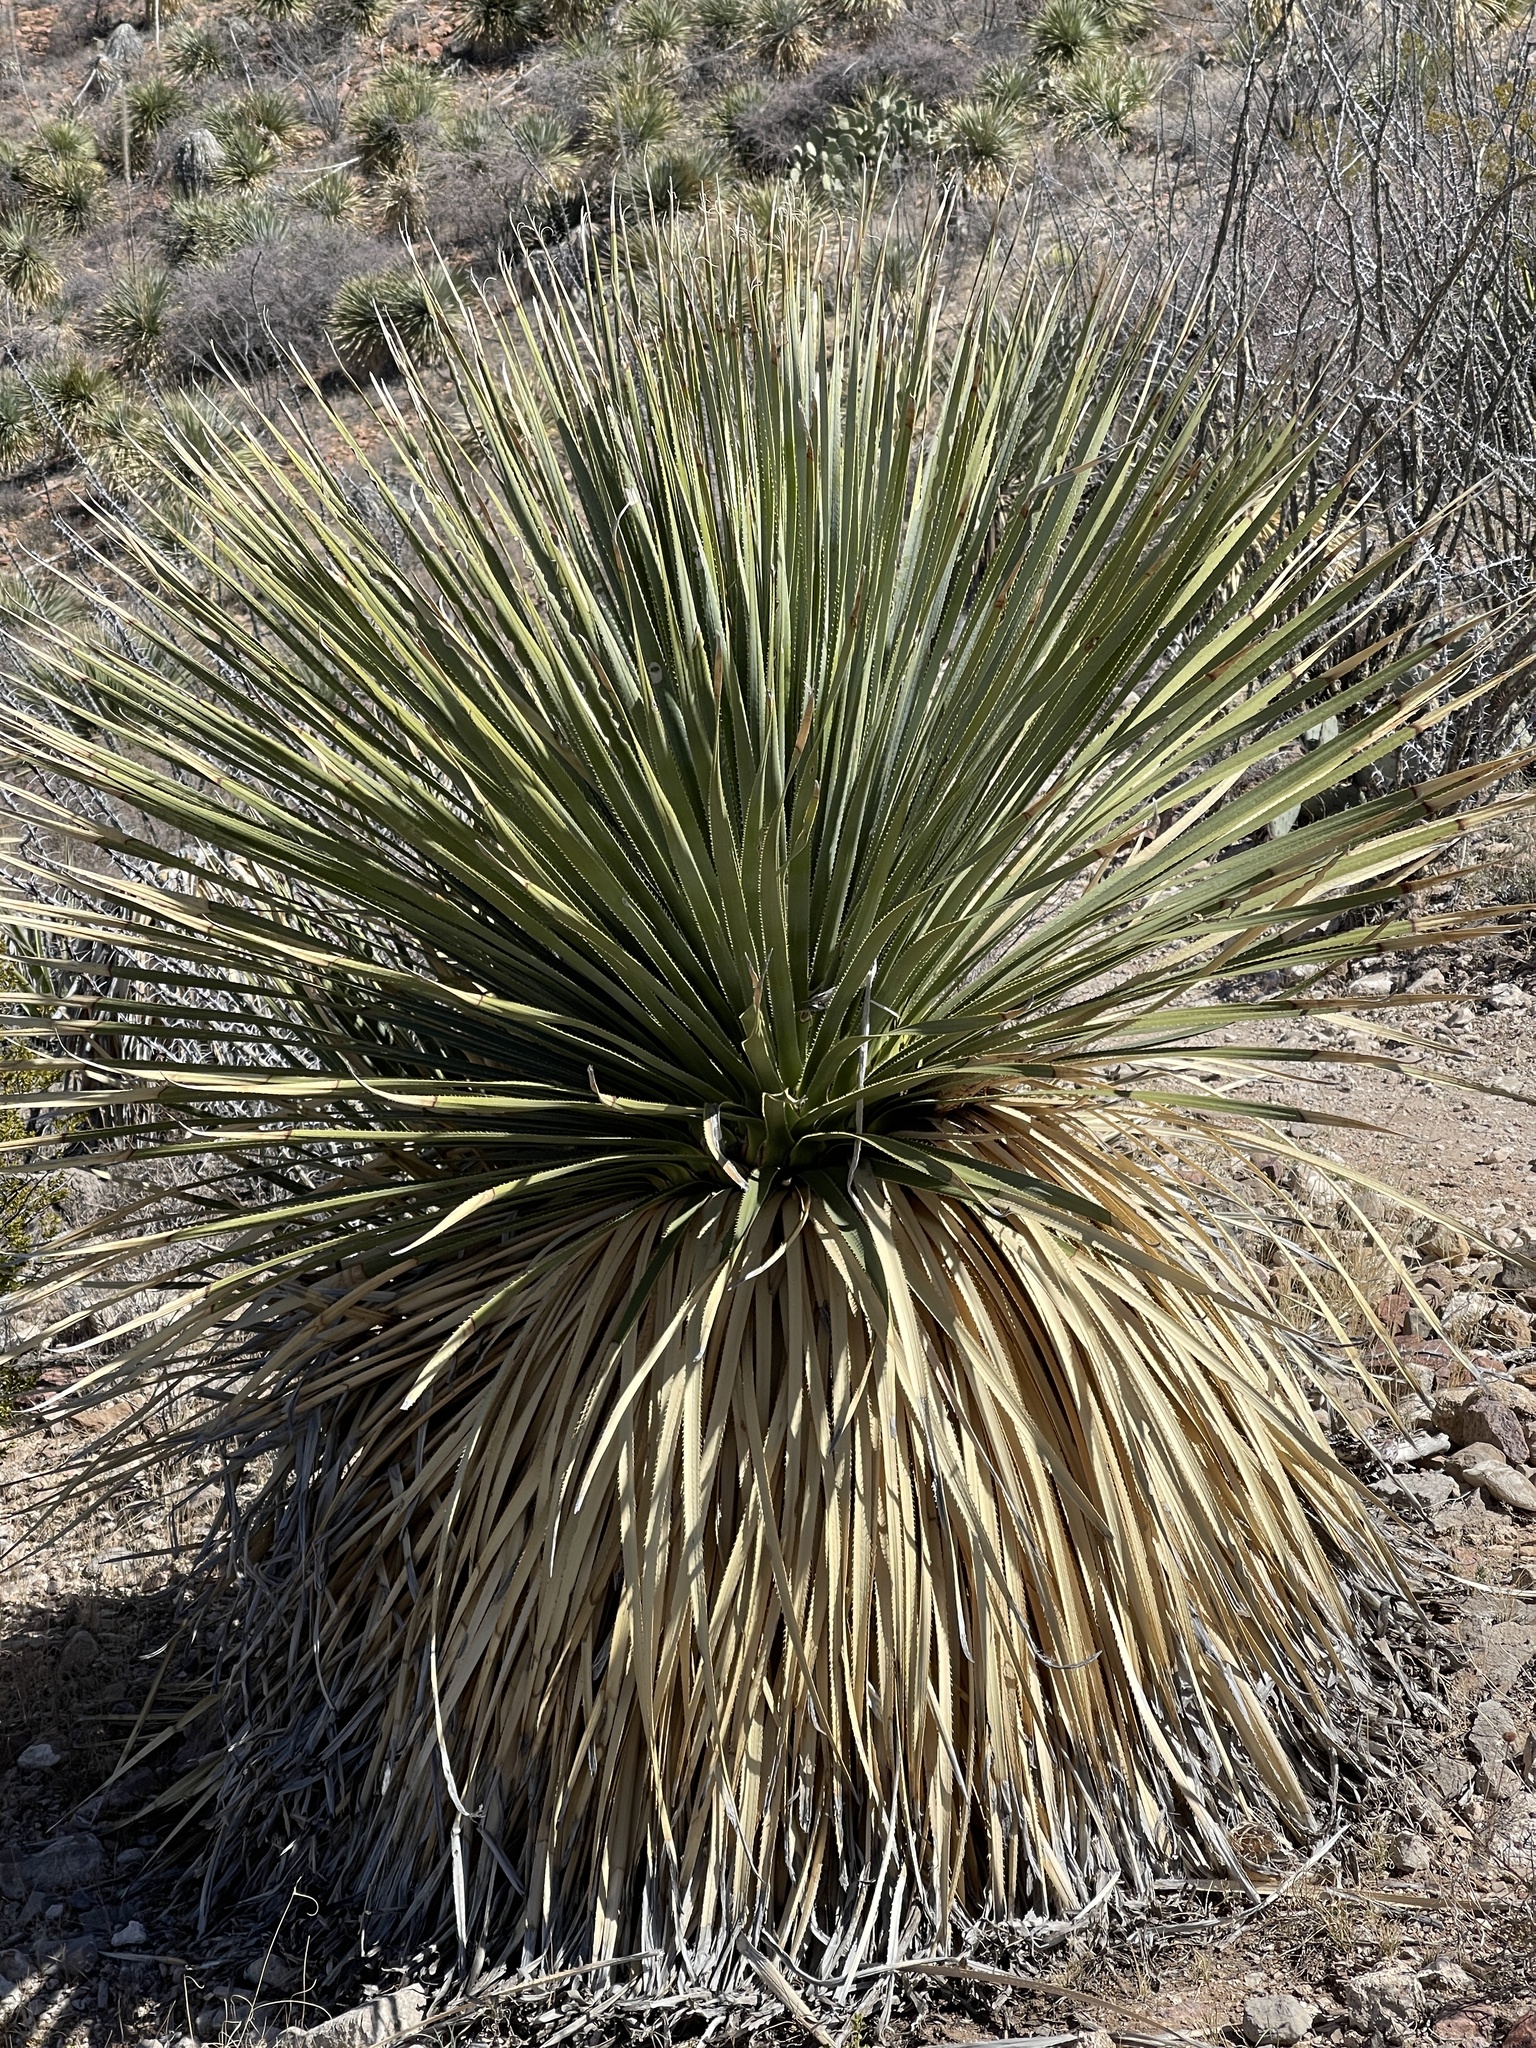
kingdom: Plantae
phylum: Tracheophyta
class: Liliopsida
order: Asparagales
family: Asparagaceae
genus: Dasylirion
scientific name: Dasylirion wheeleri
